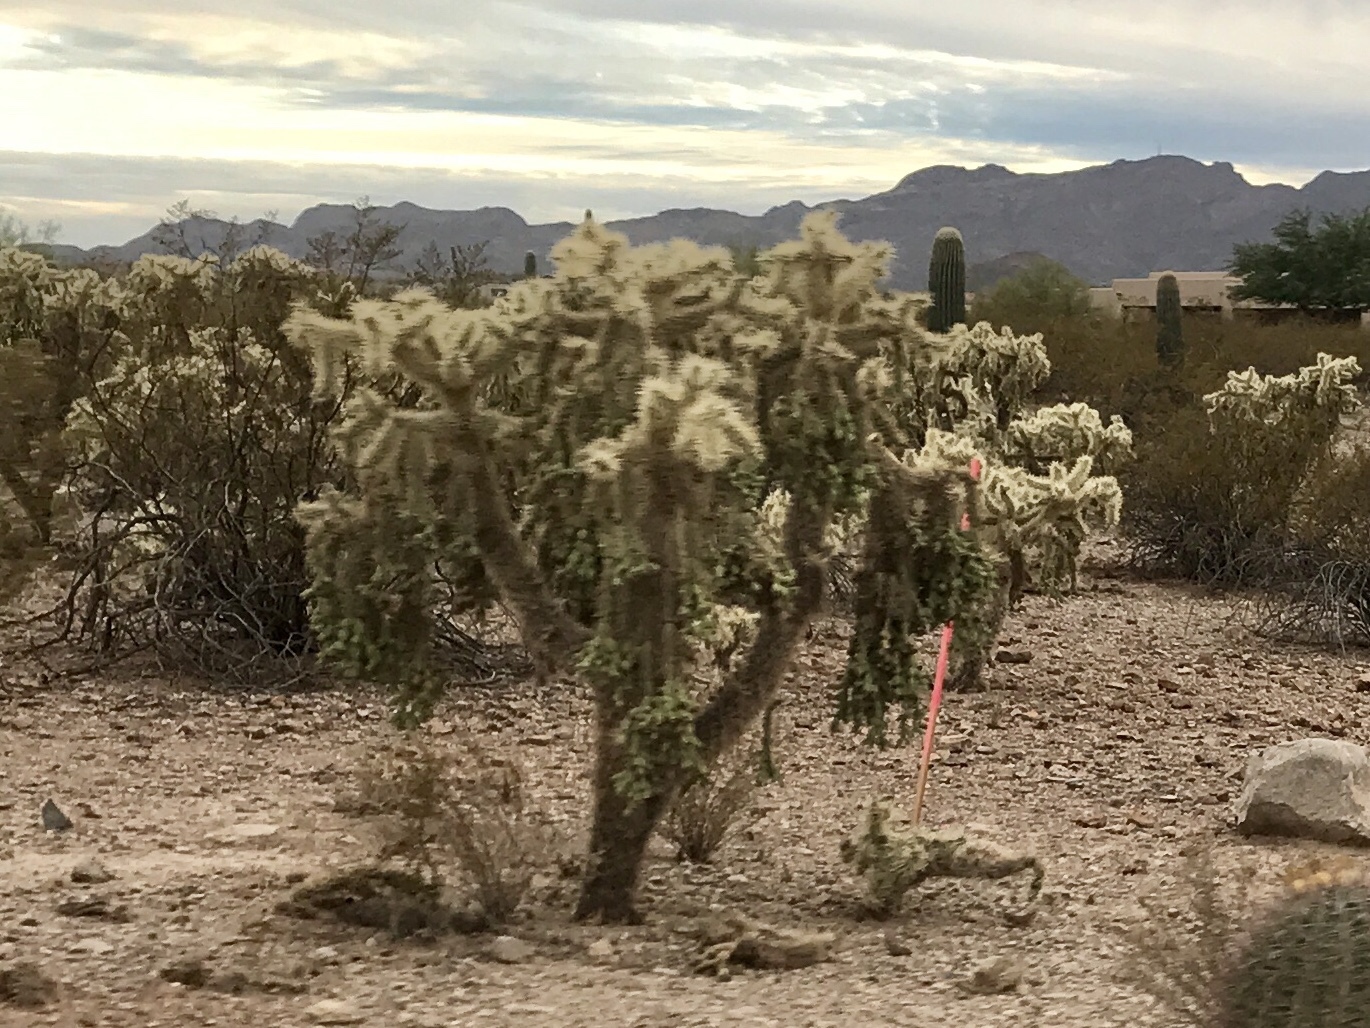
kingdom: Plantae
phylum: Tracheophyta
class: Magnoliopsida
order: Caryophyllales
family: Cactaceae
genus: Cylindropuntia
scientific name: Cylindropuntia fulgida
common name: Jumping cholla
